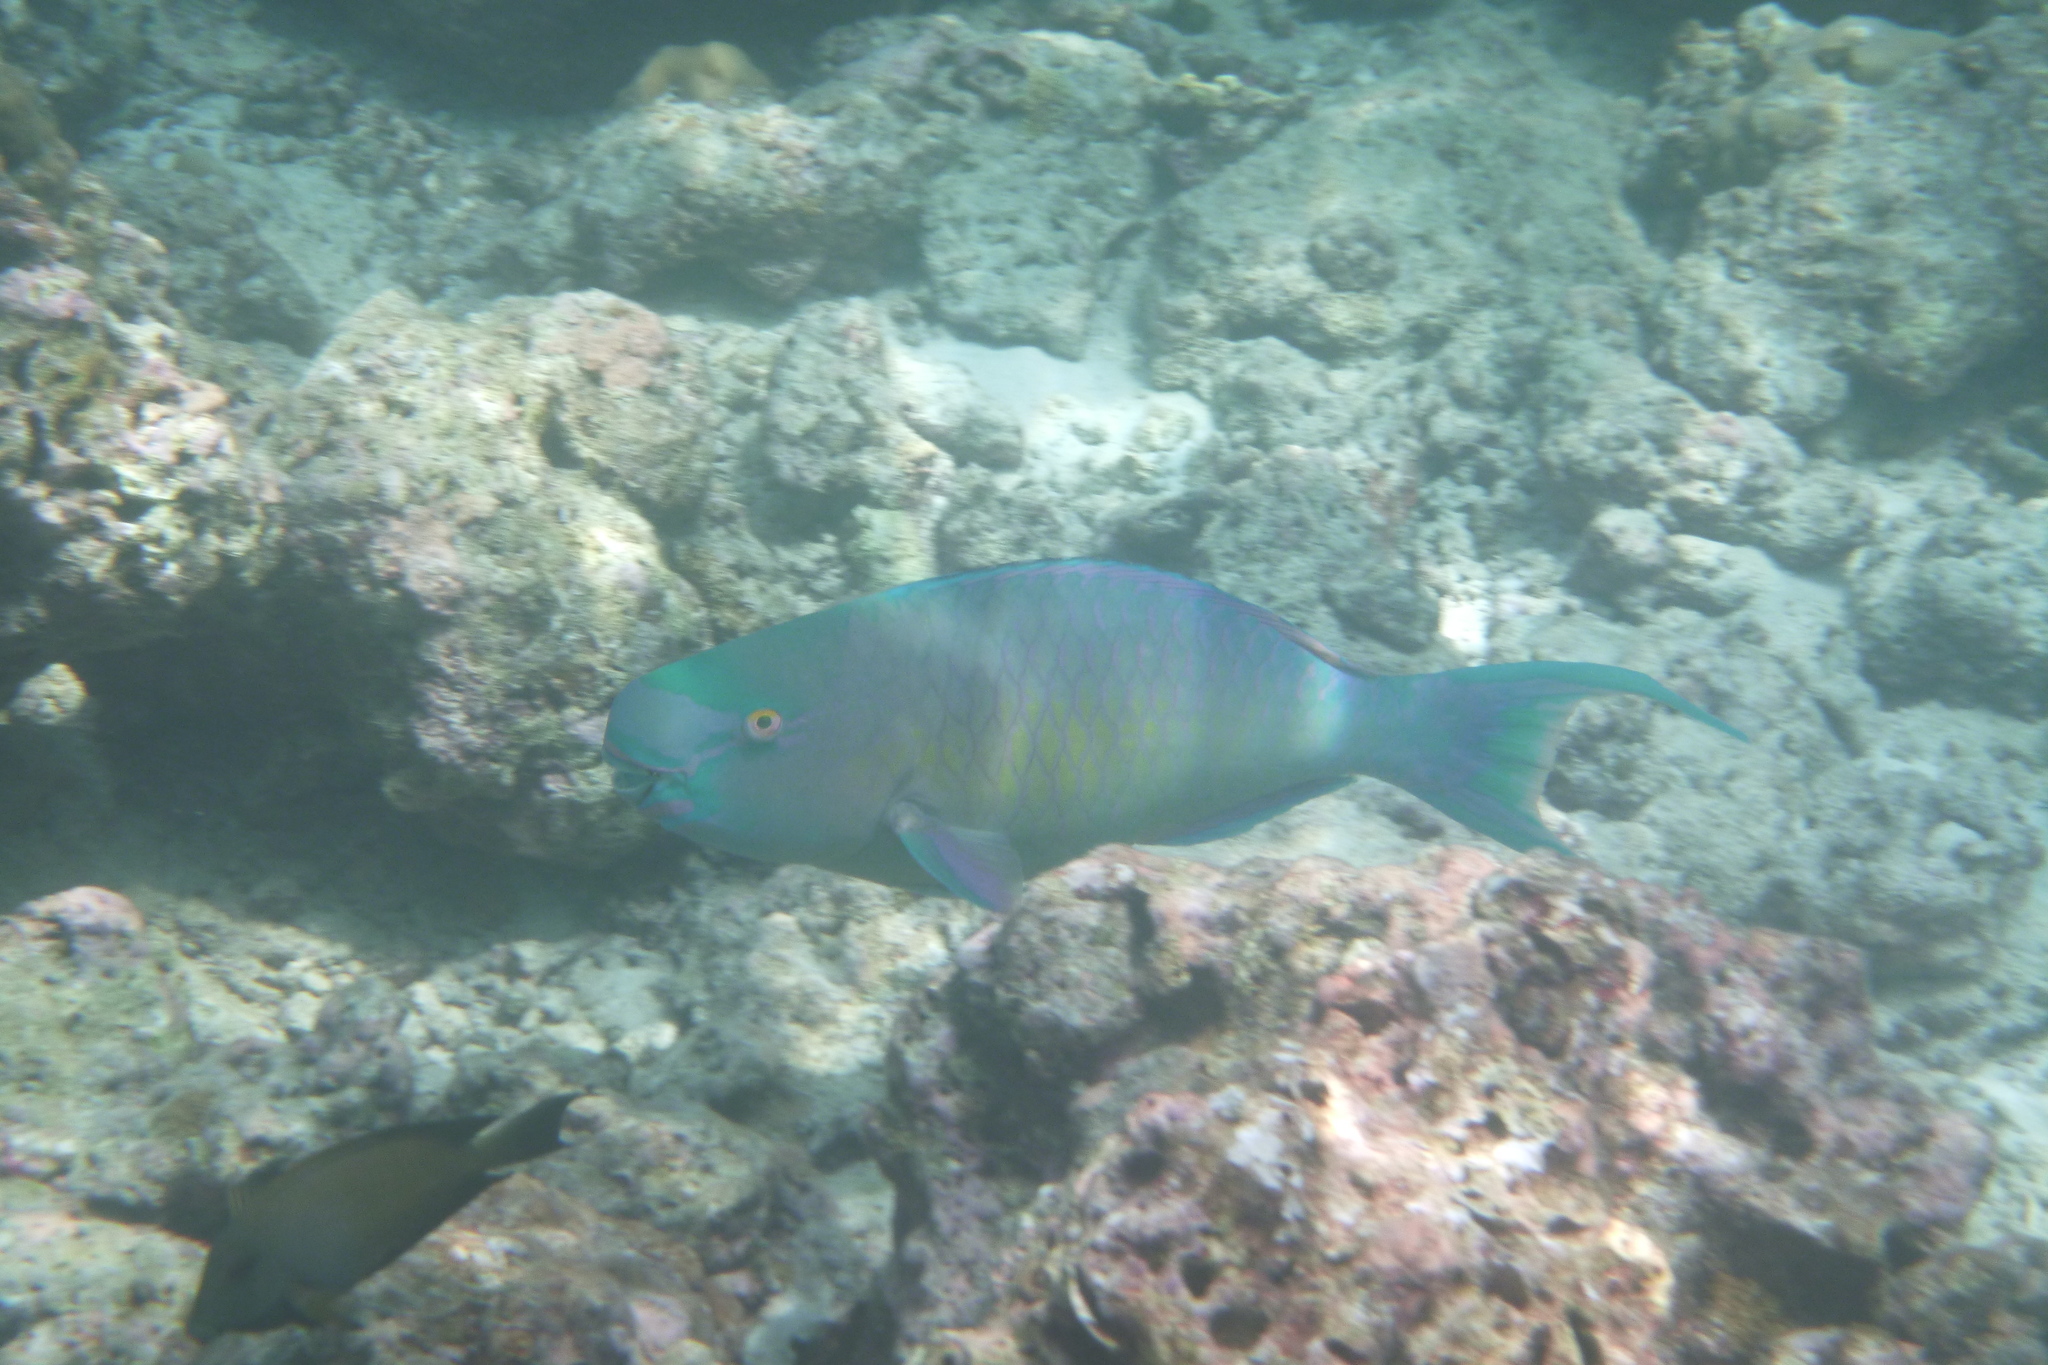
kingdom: Animalia
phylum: Chordata
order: Perciformes
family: Scaridae
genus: Scarus
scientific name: Scarus rubroviolaceus
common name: Ember parrotfish
